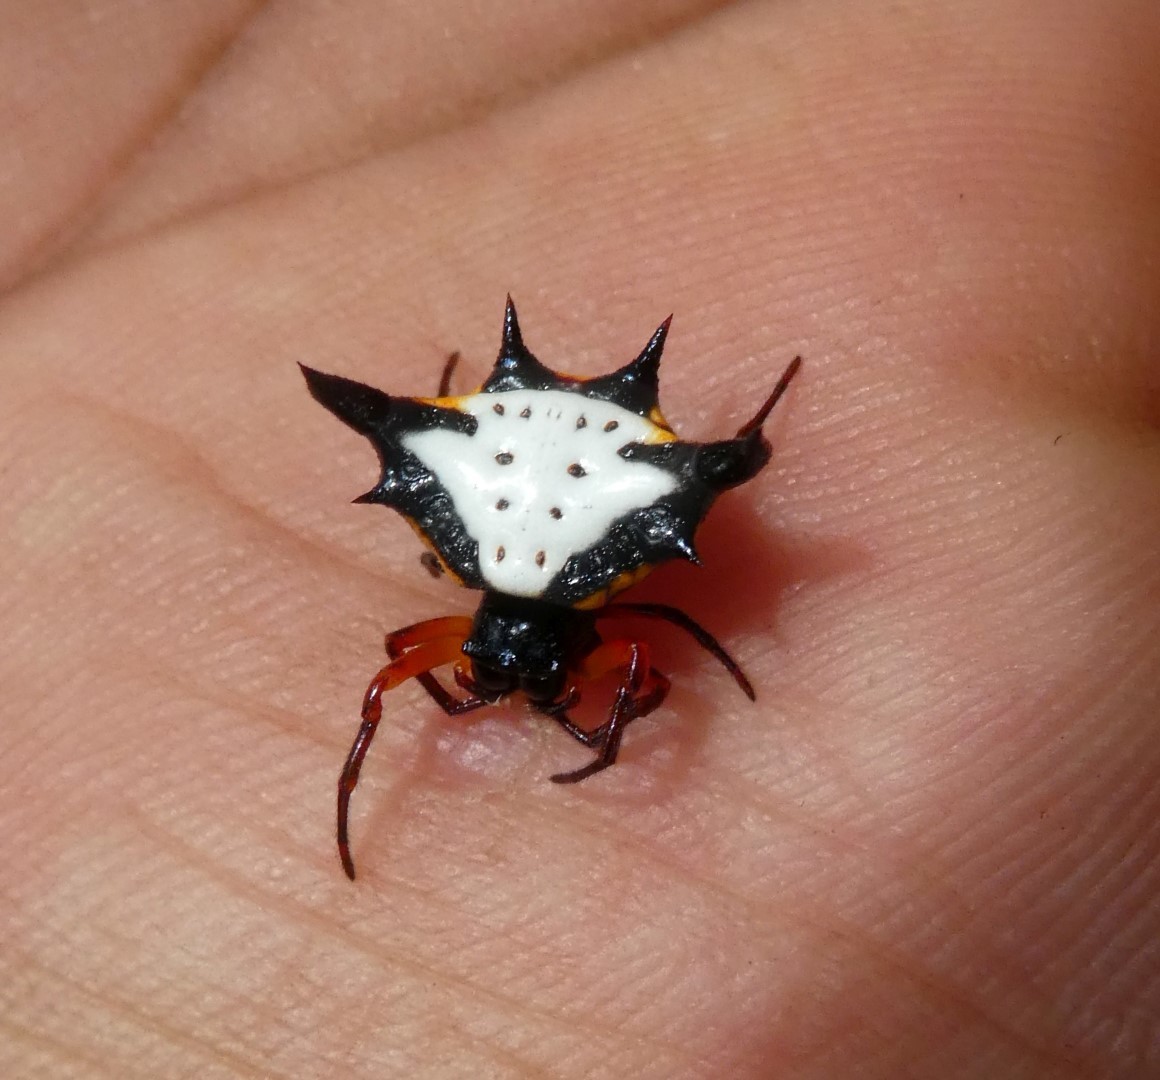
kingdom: Animalia
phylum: Arthropoda
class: Arachnida
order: Araneae
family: Araneidae
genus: Gasteracantha
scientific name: Gasteracantha crucigera
